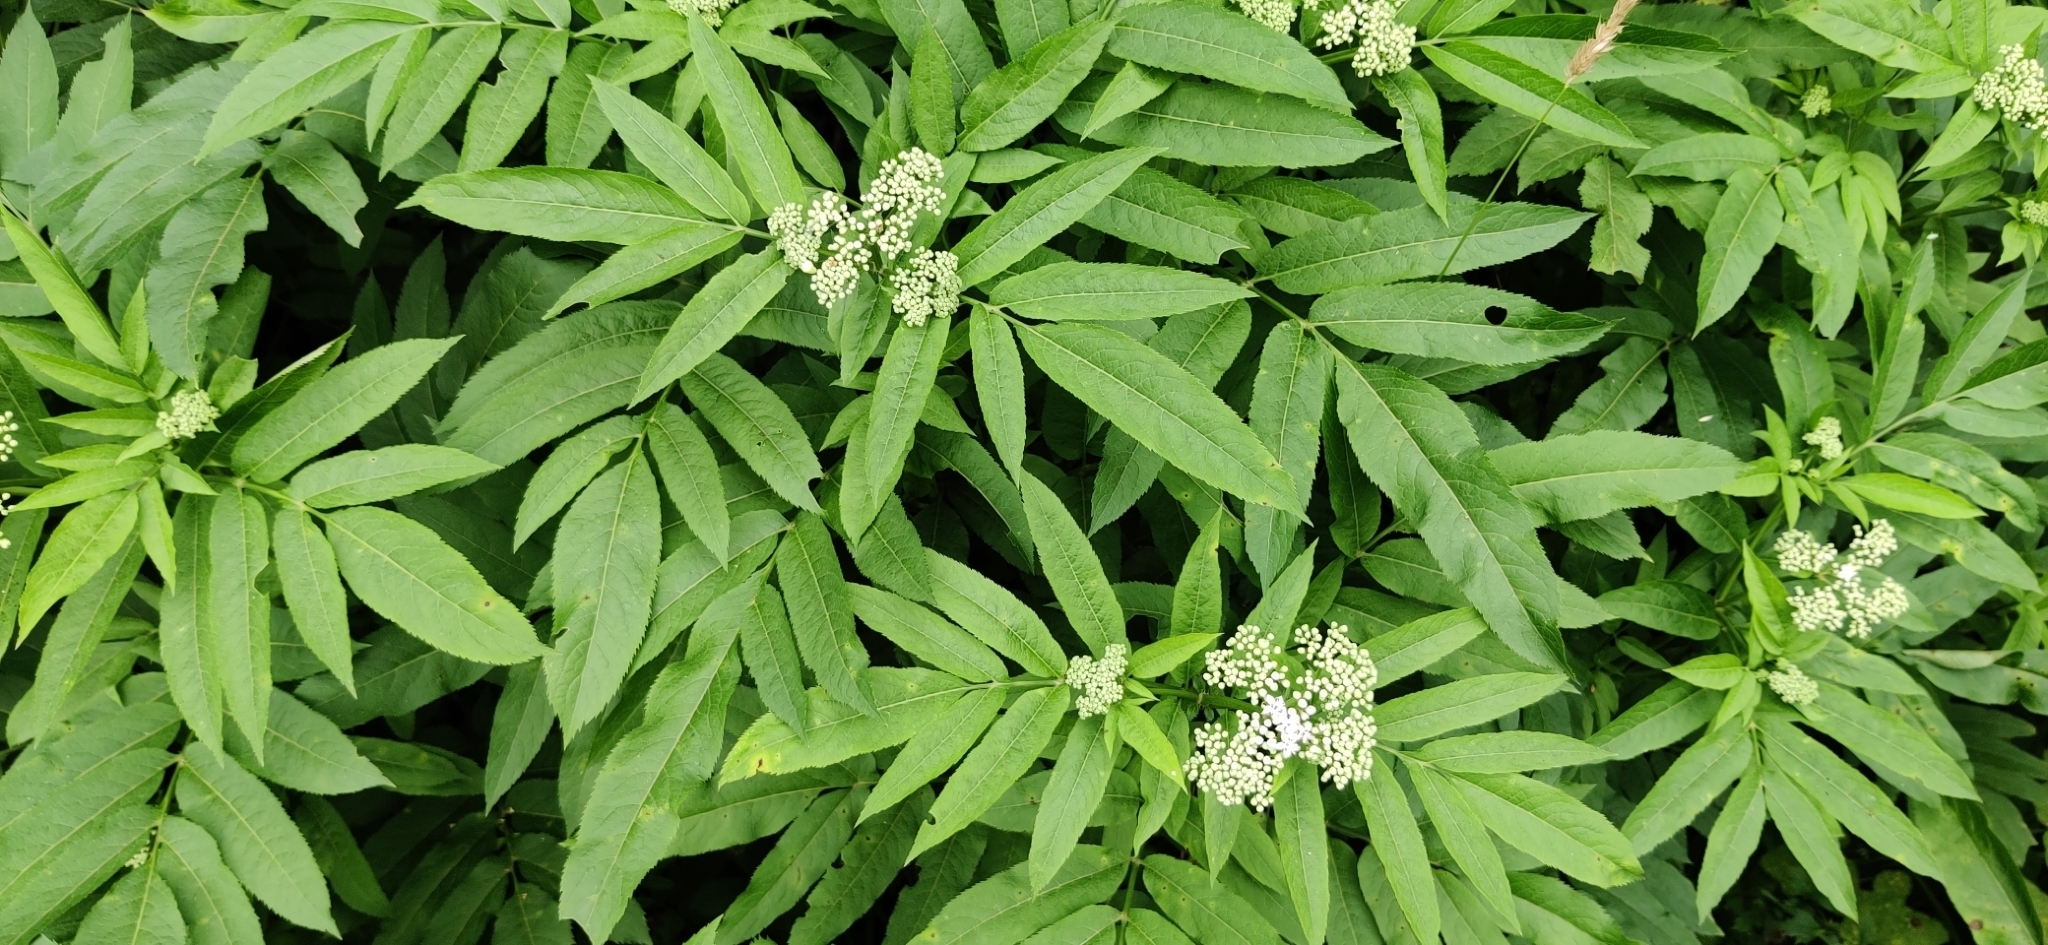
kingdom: Plantae
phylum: Tracheophyta
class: Magnoliopsida
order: Dipsacales
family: Viburnaceae
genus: Sambucus
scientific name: Sambucus ebulus
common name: Dwarf elder
